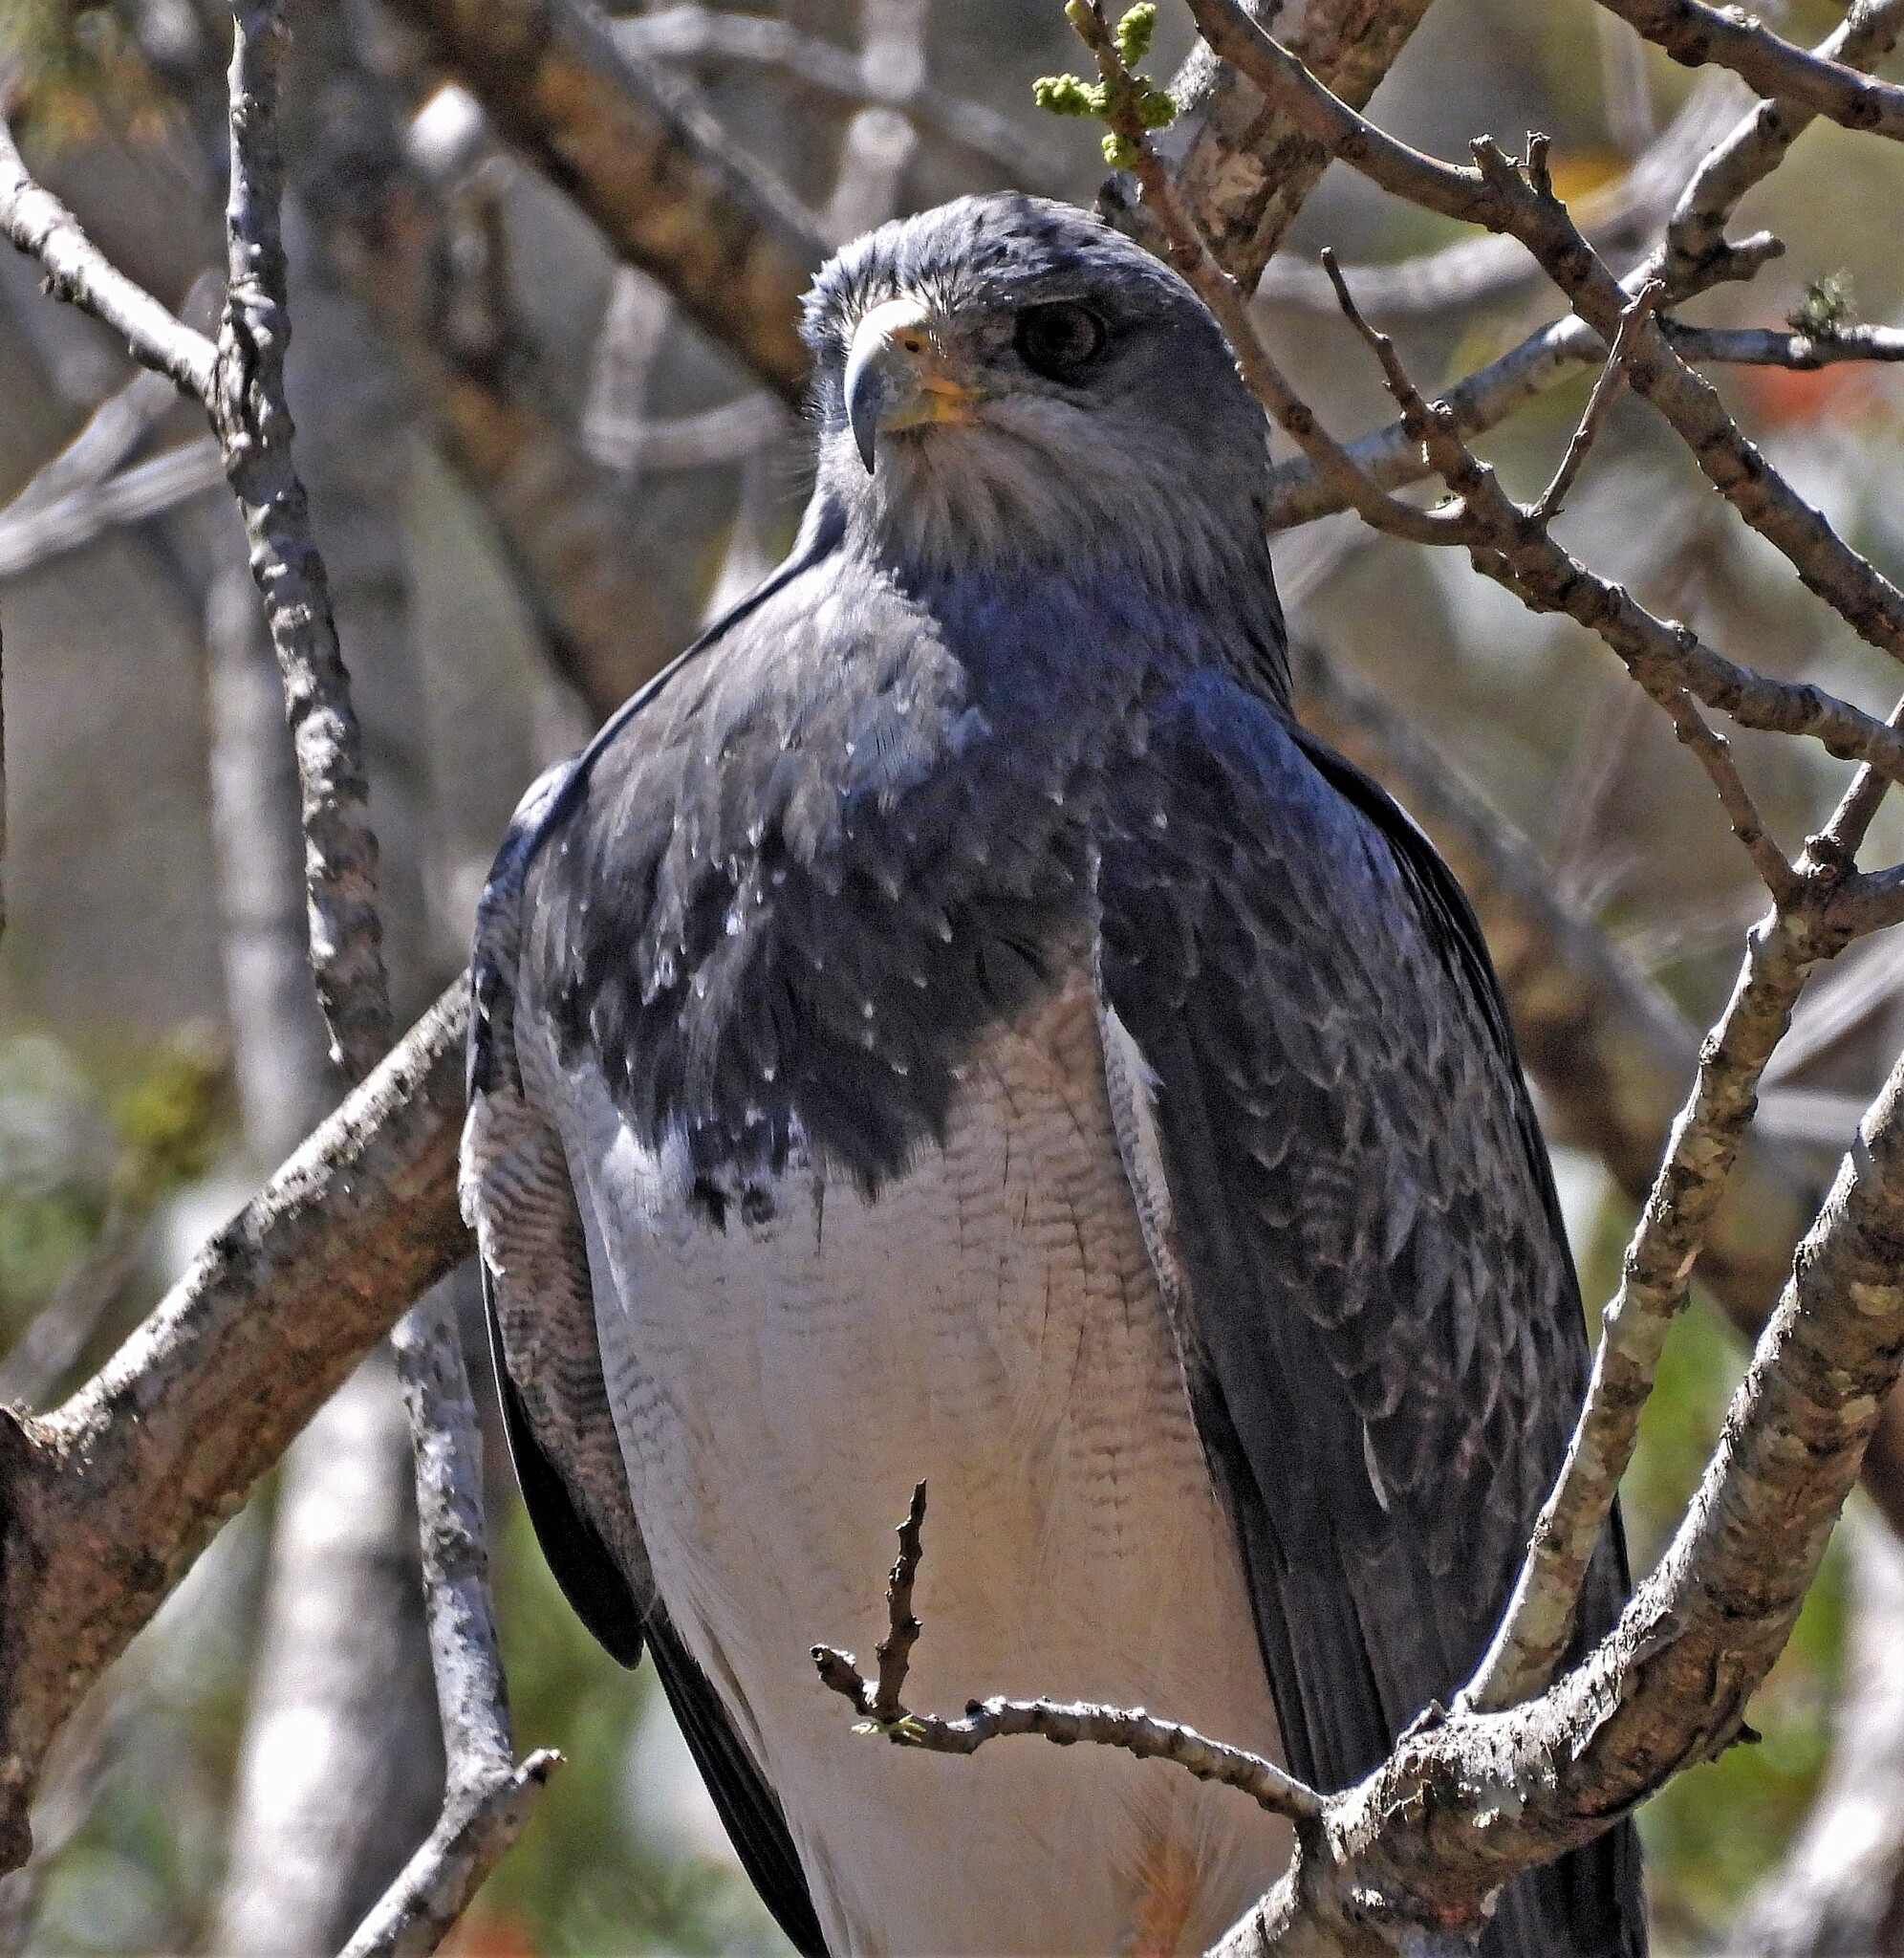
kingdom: Animalia
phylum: Chordata
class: Aves
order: Accipitriformes
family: Accipitridae
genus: Geranoaetus
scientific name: Geranoaetus melanoleucus
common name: Black-chested buzzard-eagle
